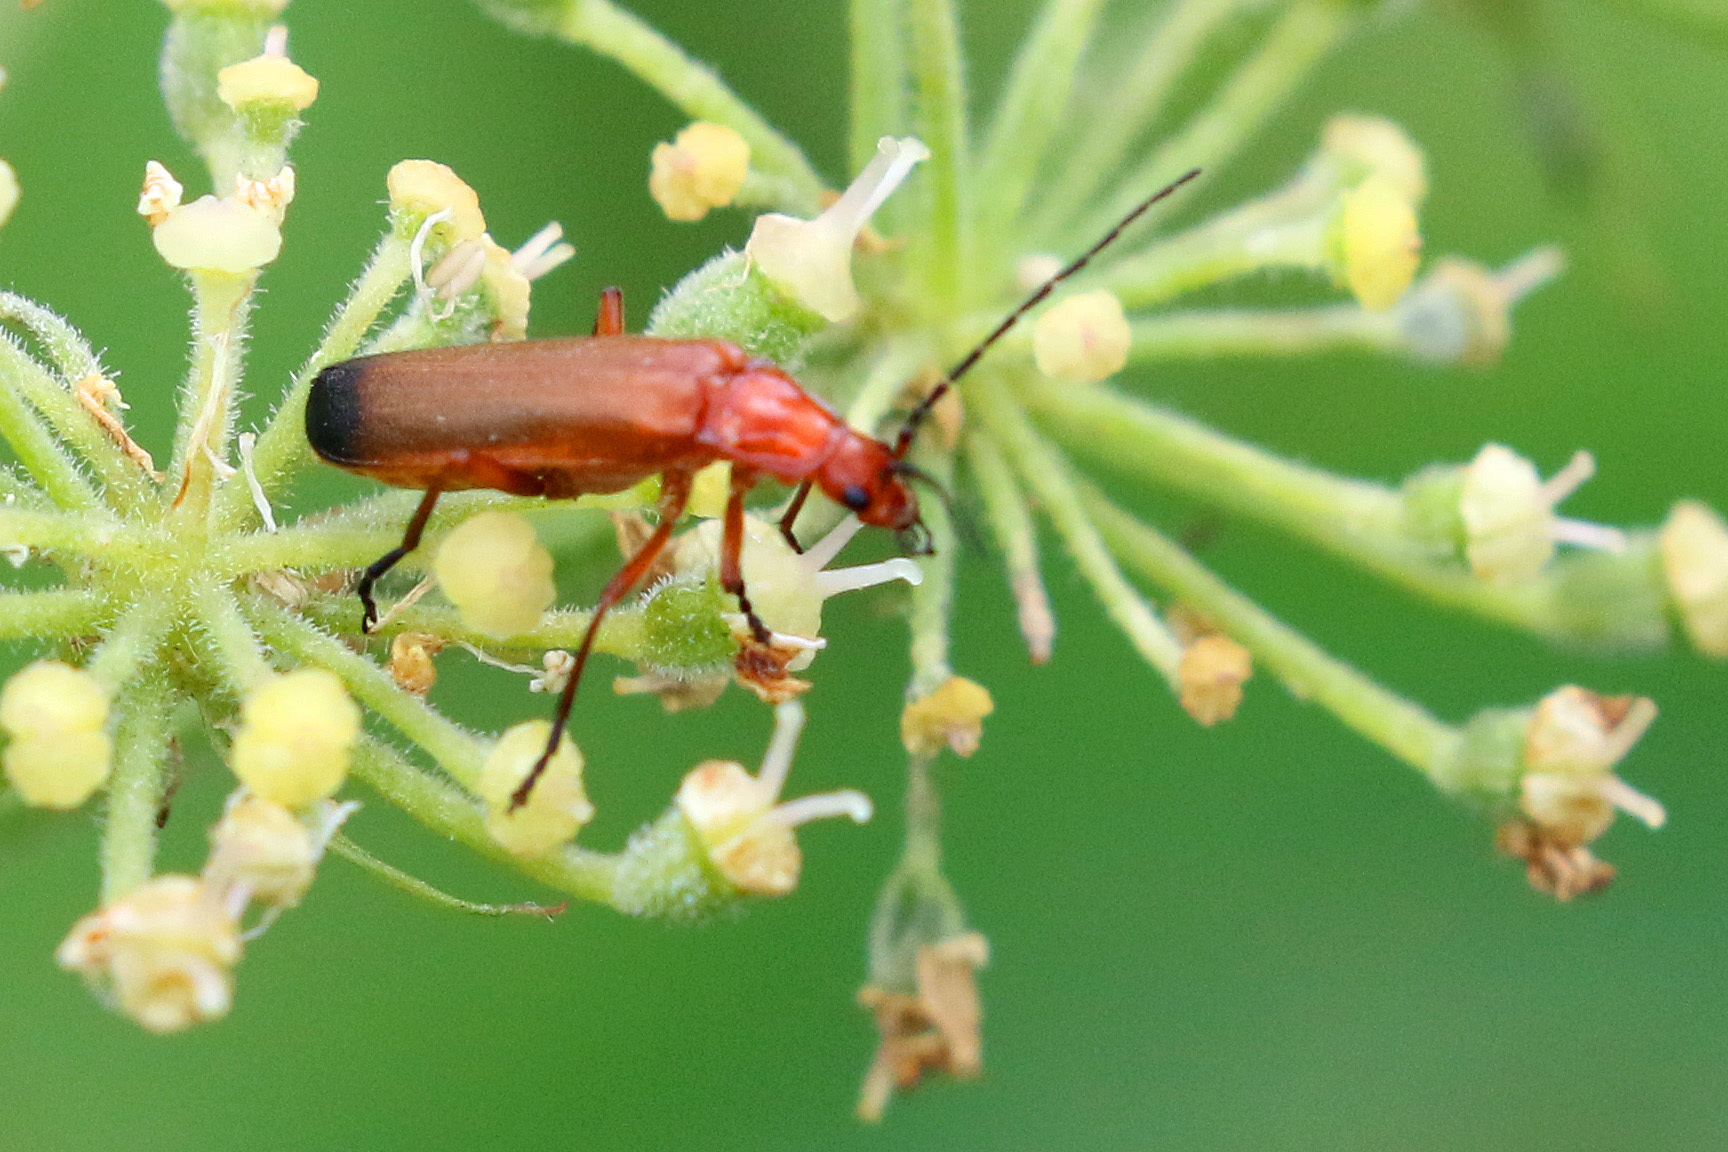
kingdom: Animalia
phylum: Arthropoda
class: Insecta
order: Coleoptera
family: Cantharidae
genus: Rhagonycha
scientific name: Rhagonycha fulva
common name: Common red soldier beetle
